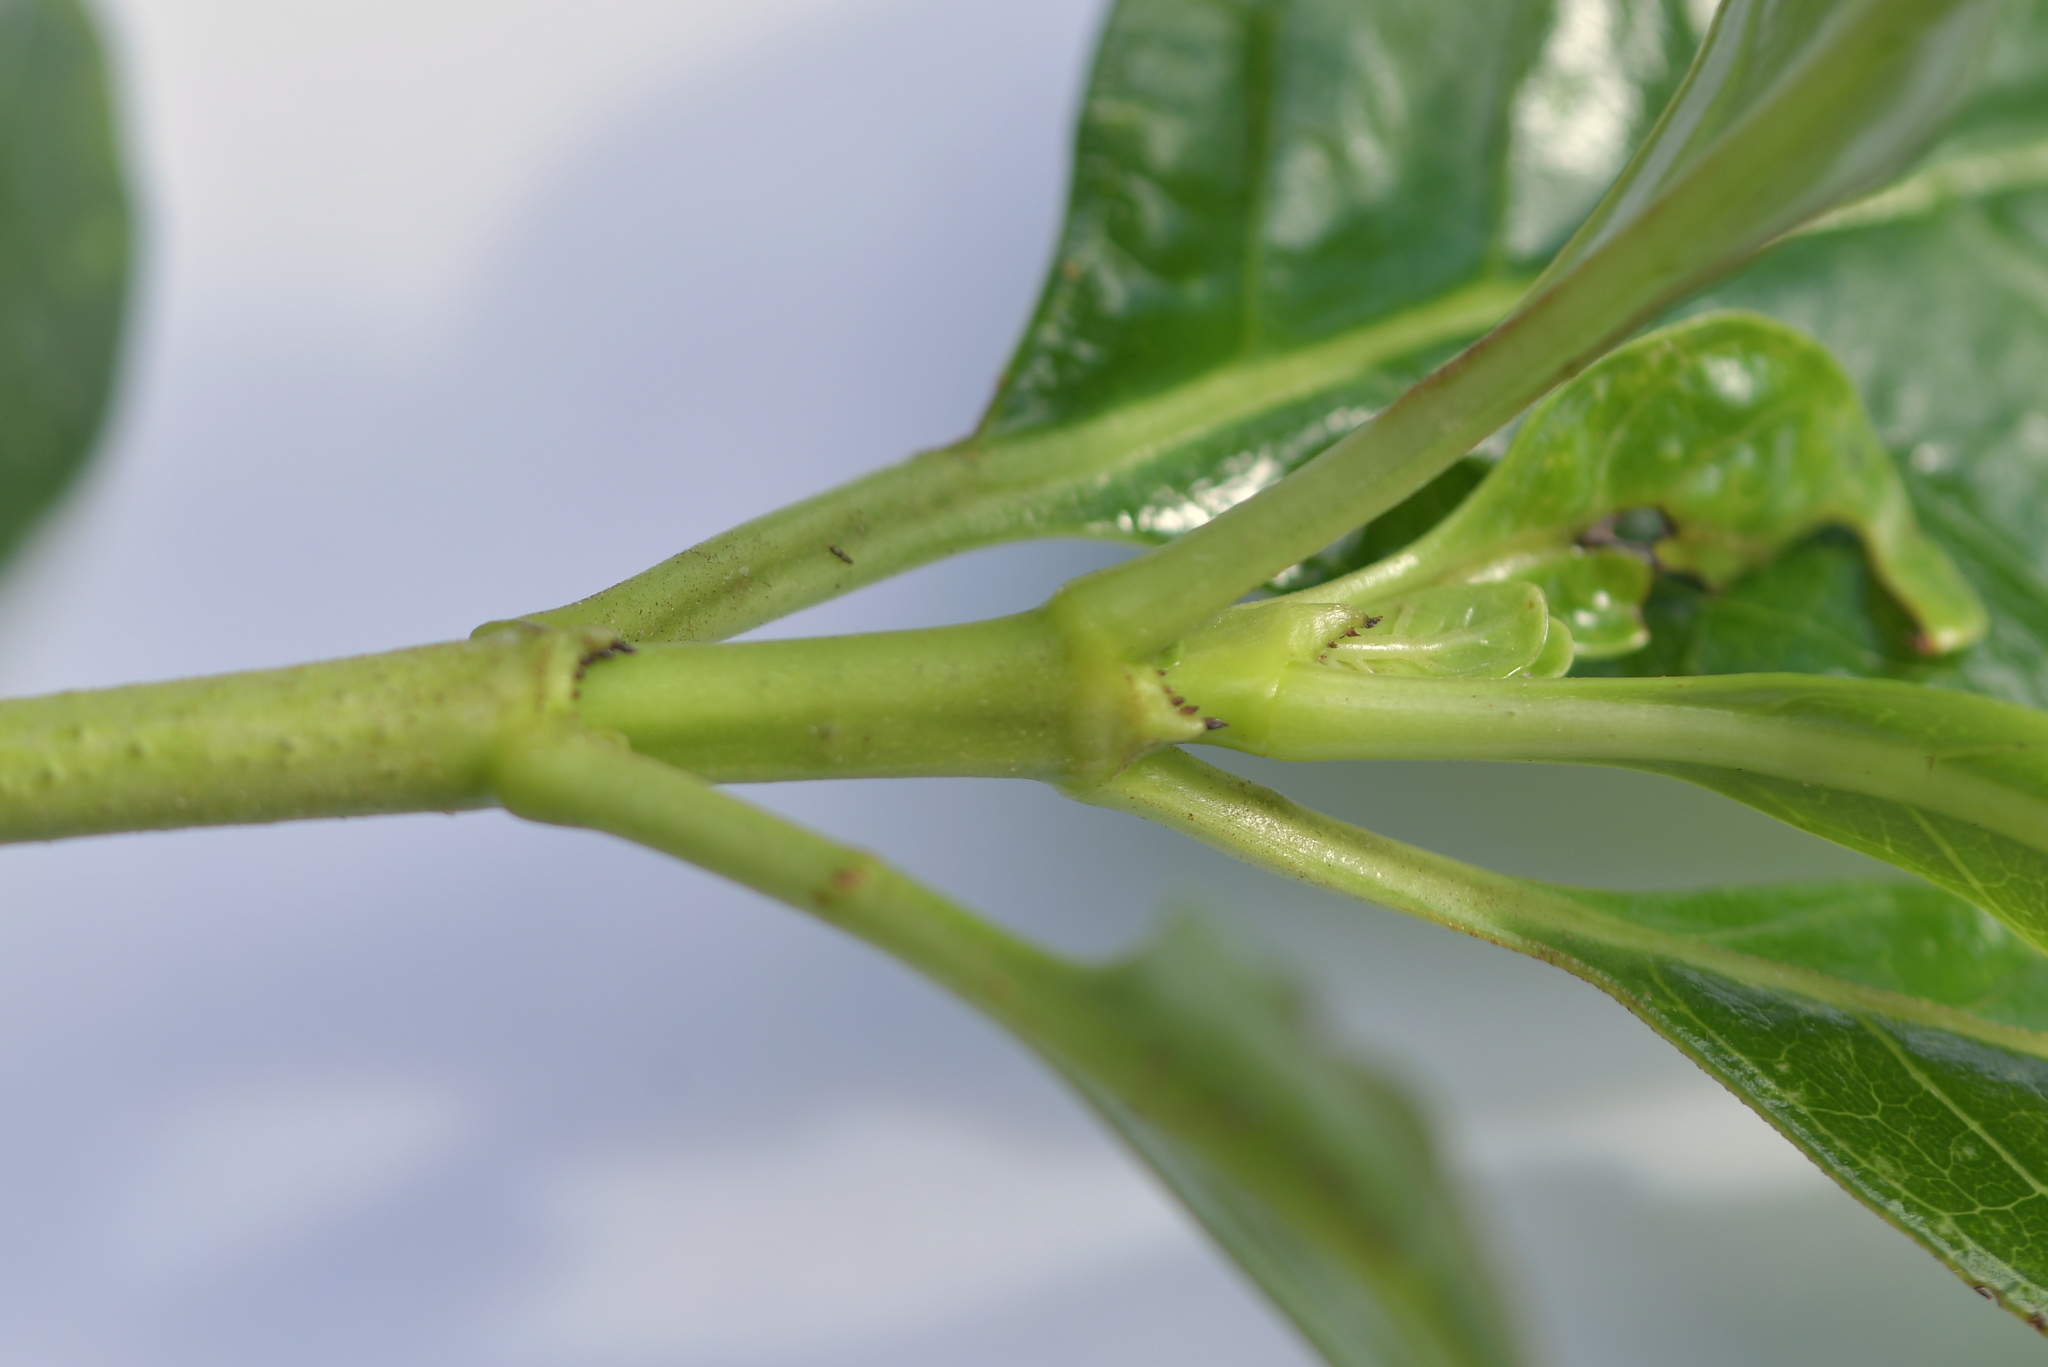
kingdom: Plantae
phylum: Tracheophyta
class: Magnoliopsida
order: Gentianales
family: Rubiaceae
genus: Coprosma
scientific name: Coprosma repens
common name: Tree bedstraw
